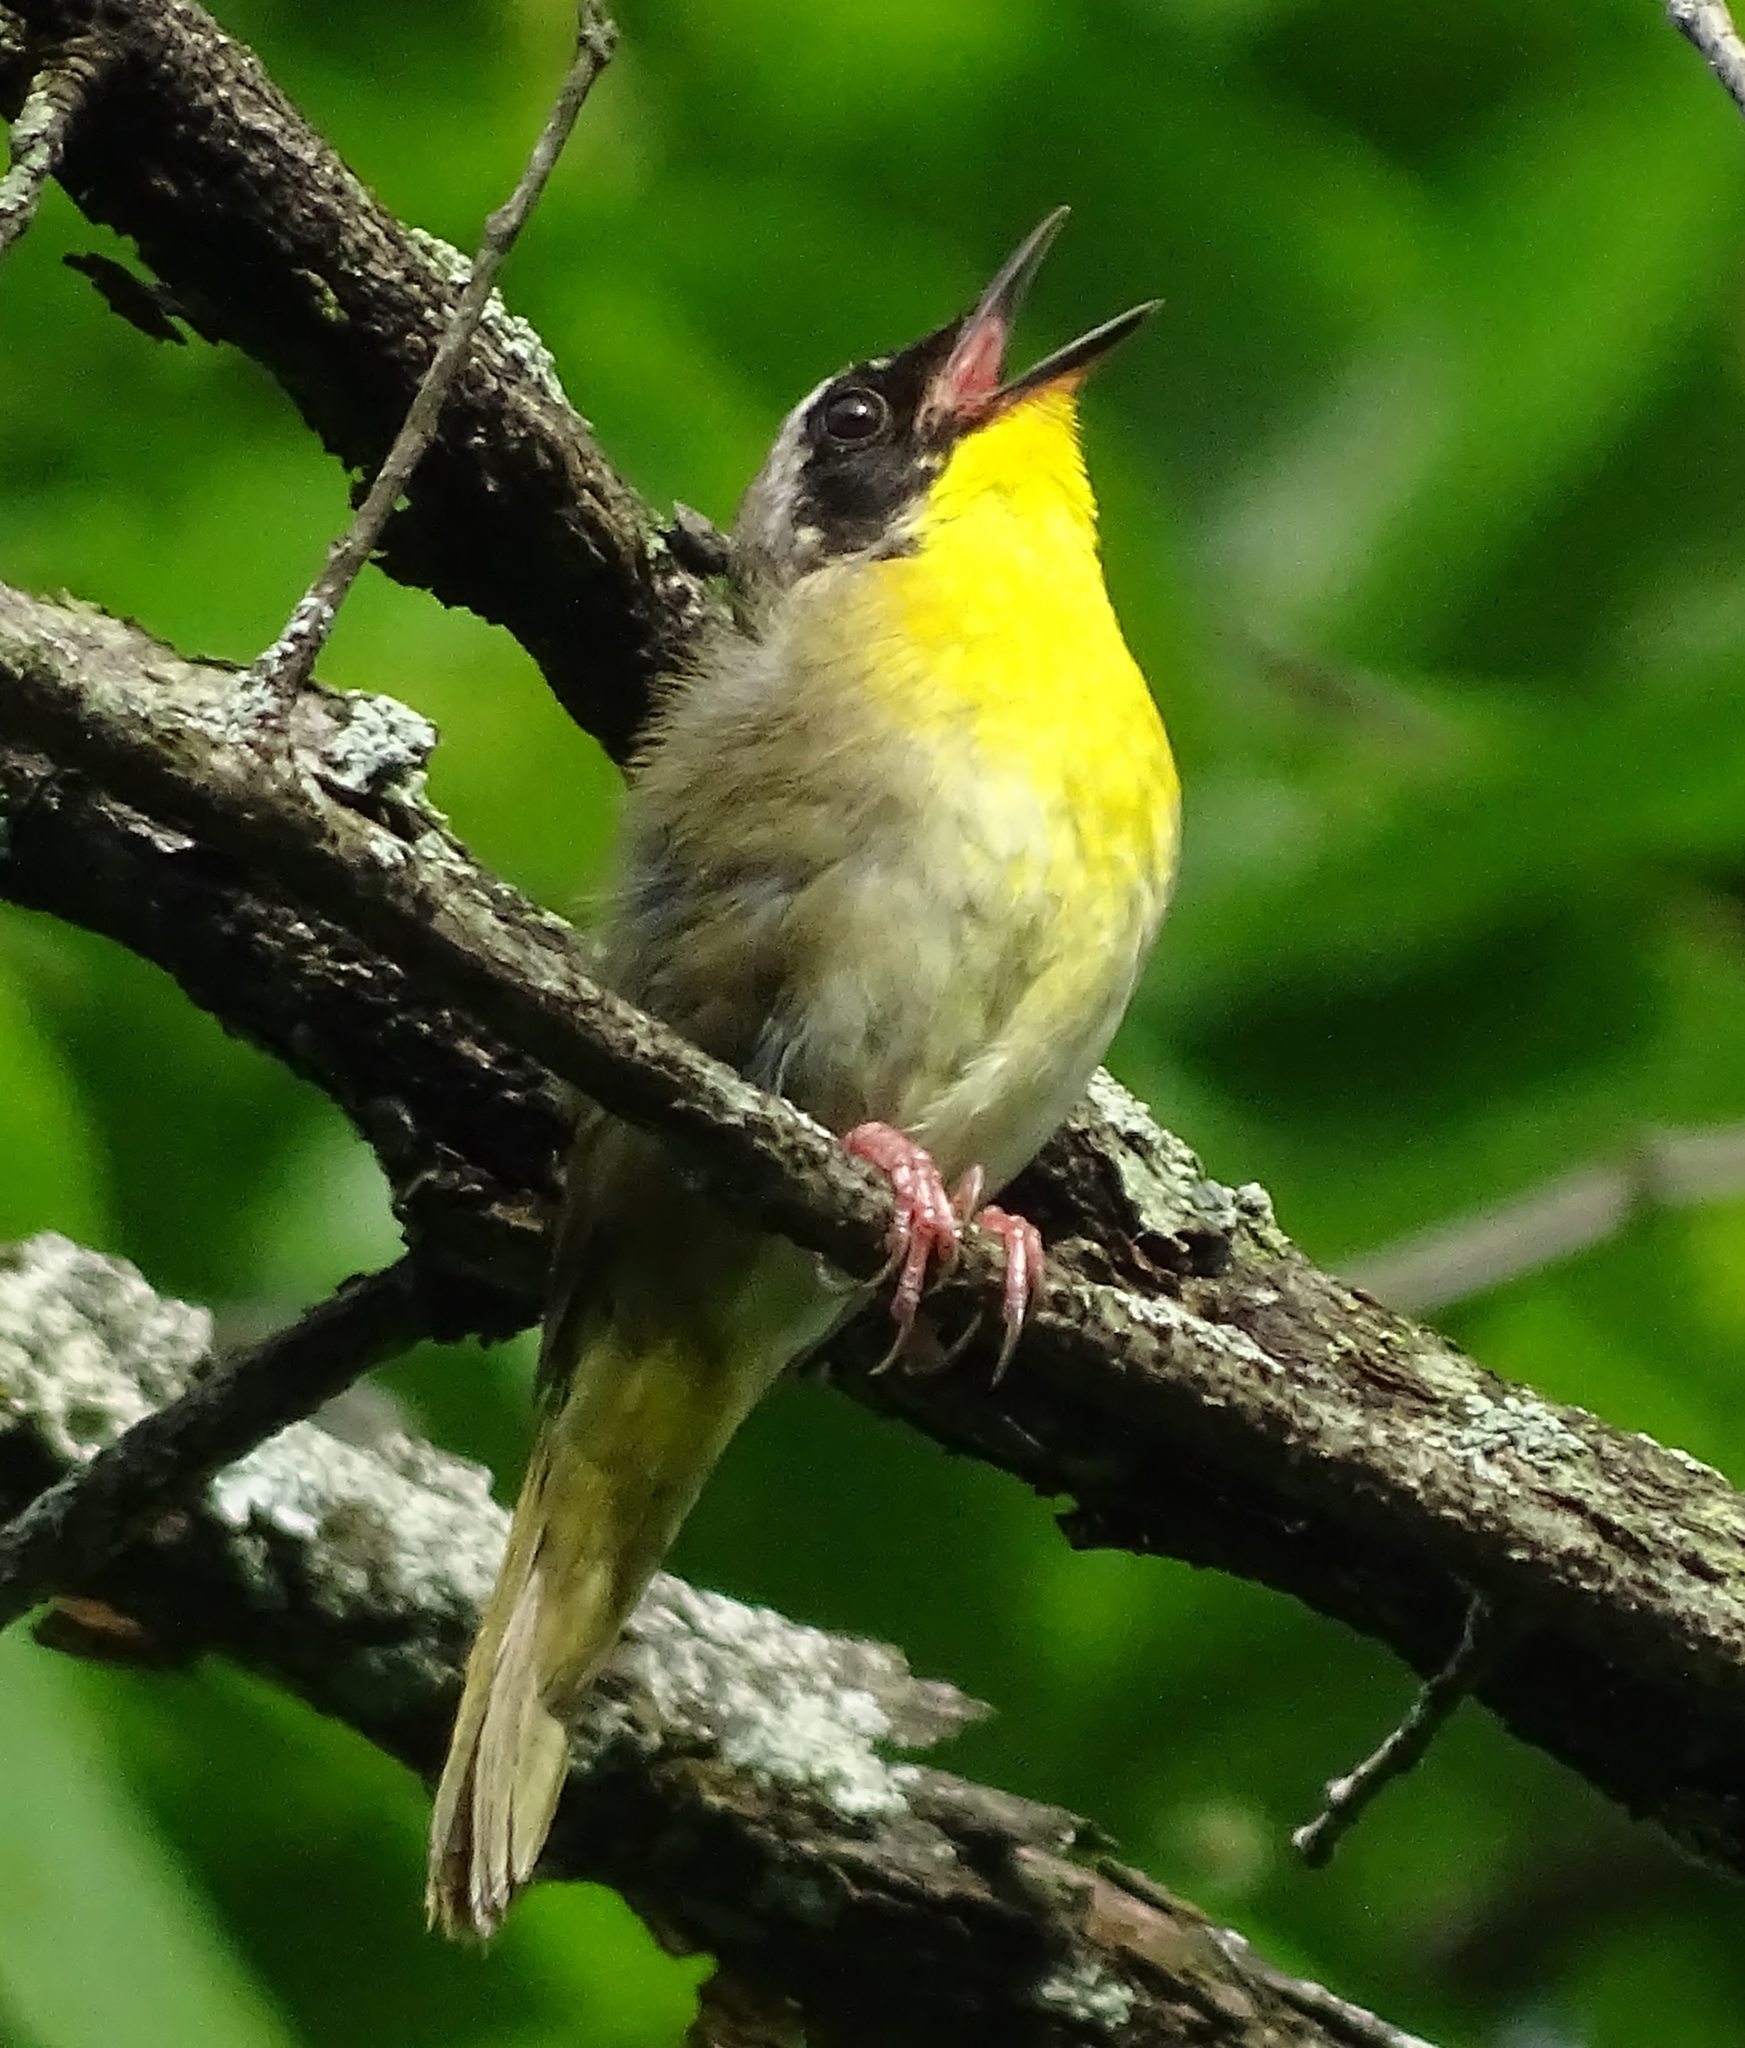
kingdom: Animalia
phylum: Chordata
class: Aves
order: Passeriformes
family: Parulidae
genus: Geothlypis
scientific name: Geothlypis trichas
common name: Common yellowthroat
